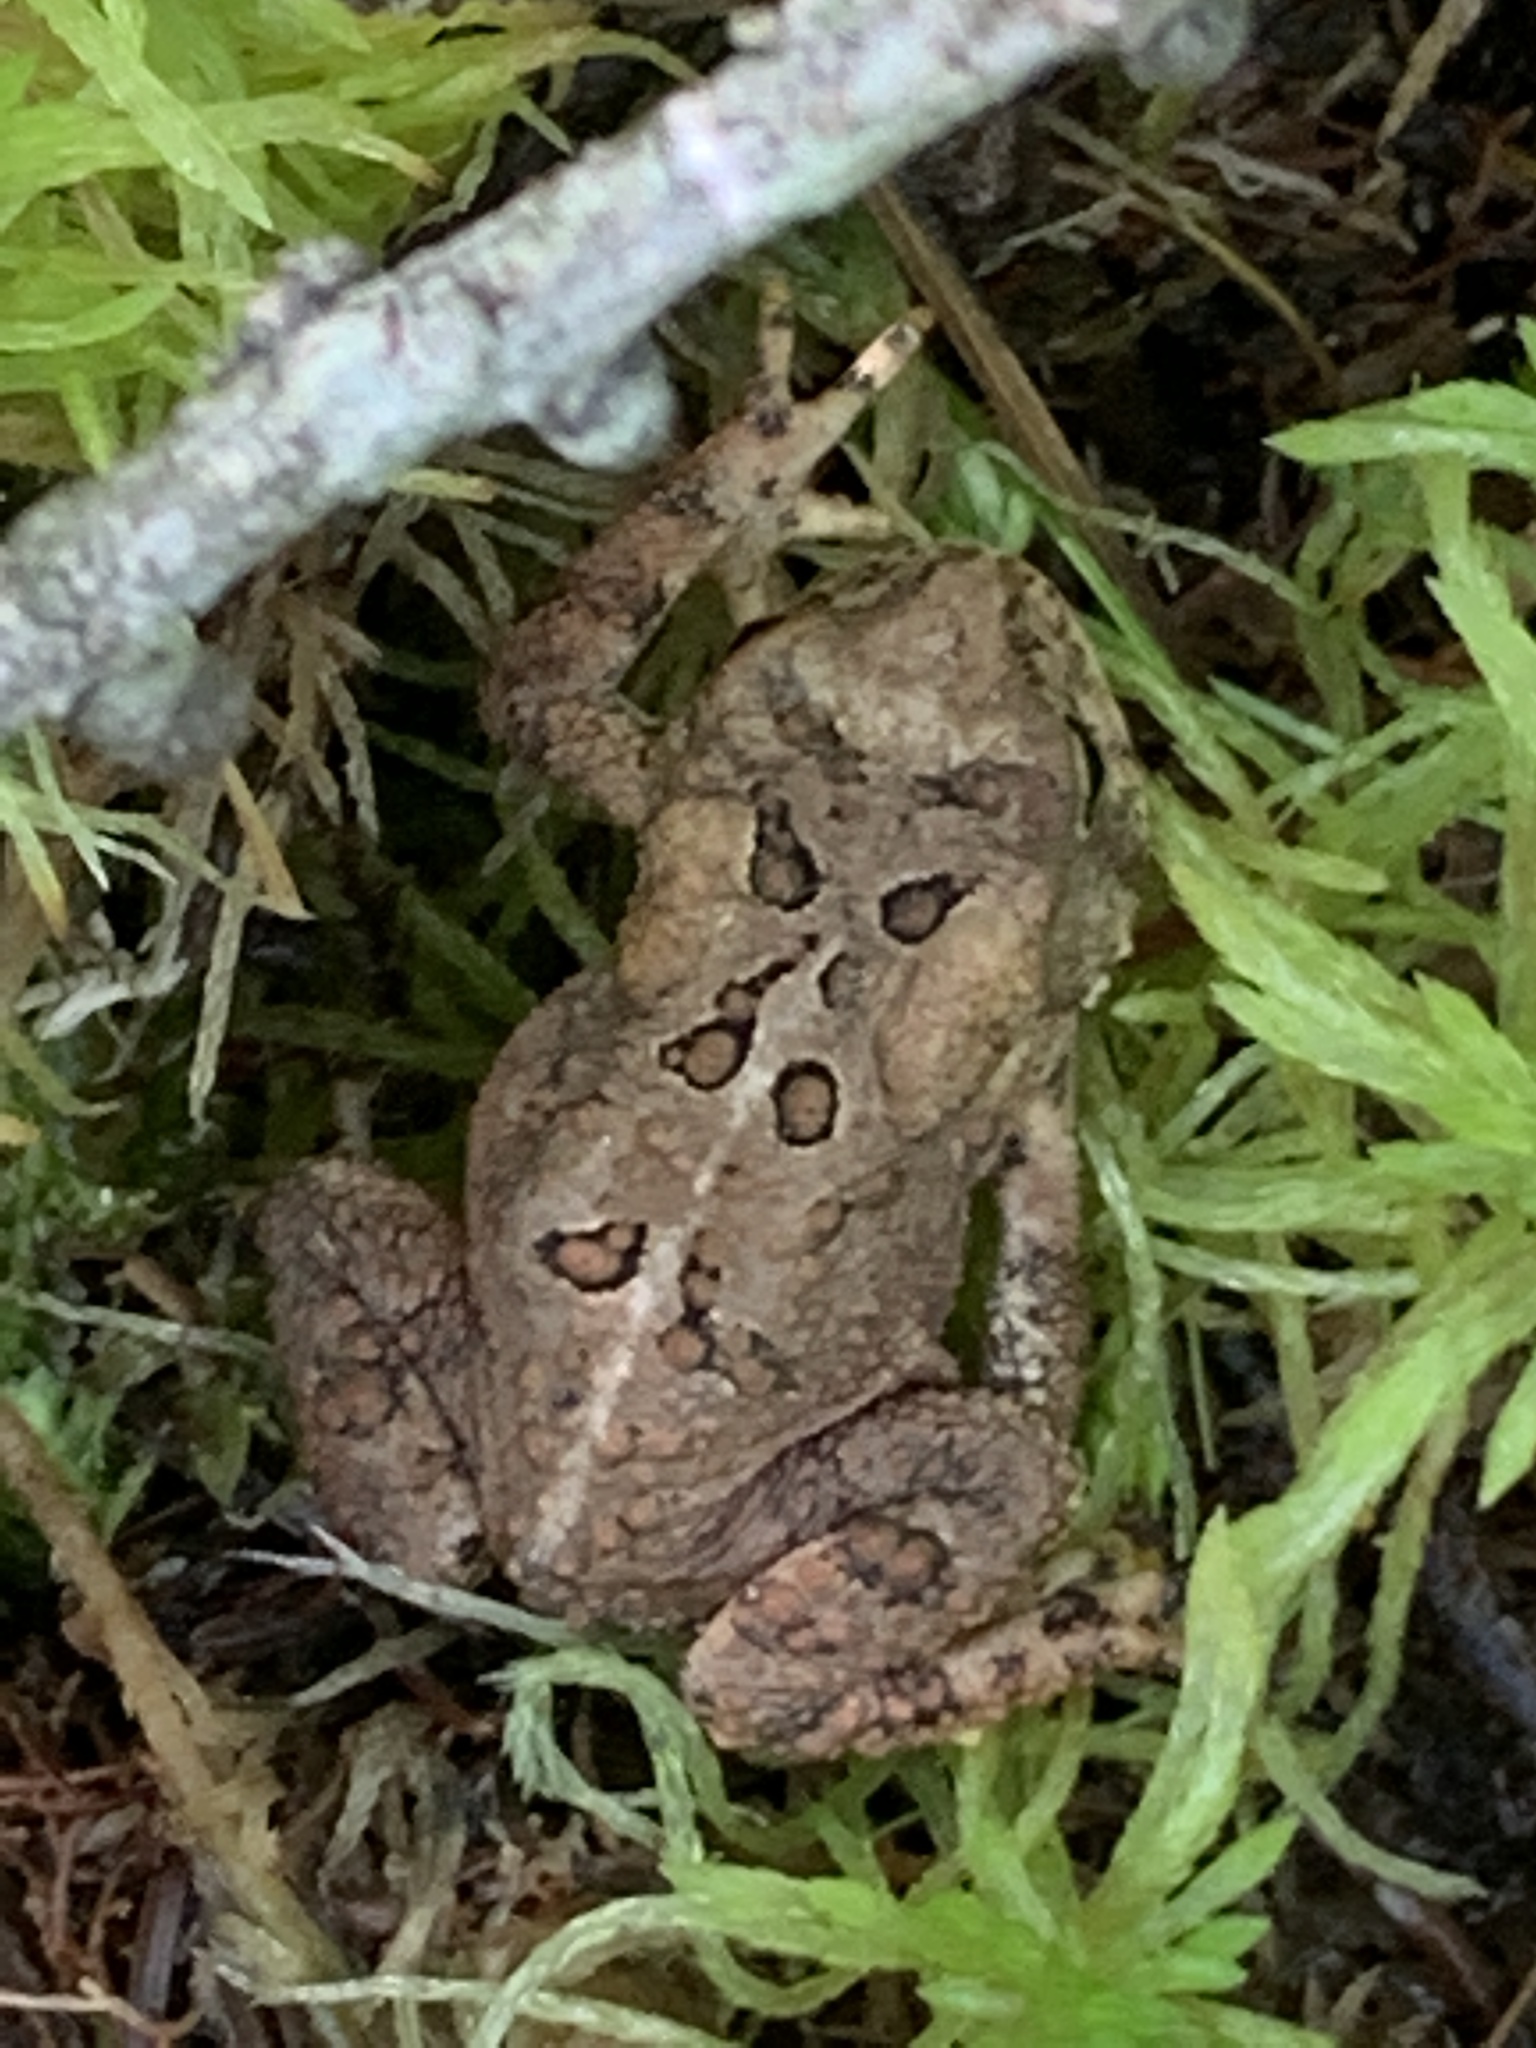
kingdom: Animalia
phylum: Chordata
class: Amphibia
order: Anura
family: Bufonidae
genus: Anaxyrus
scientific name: Anaxyrus americanus
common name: American toad
